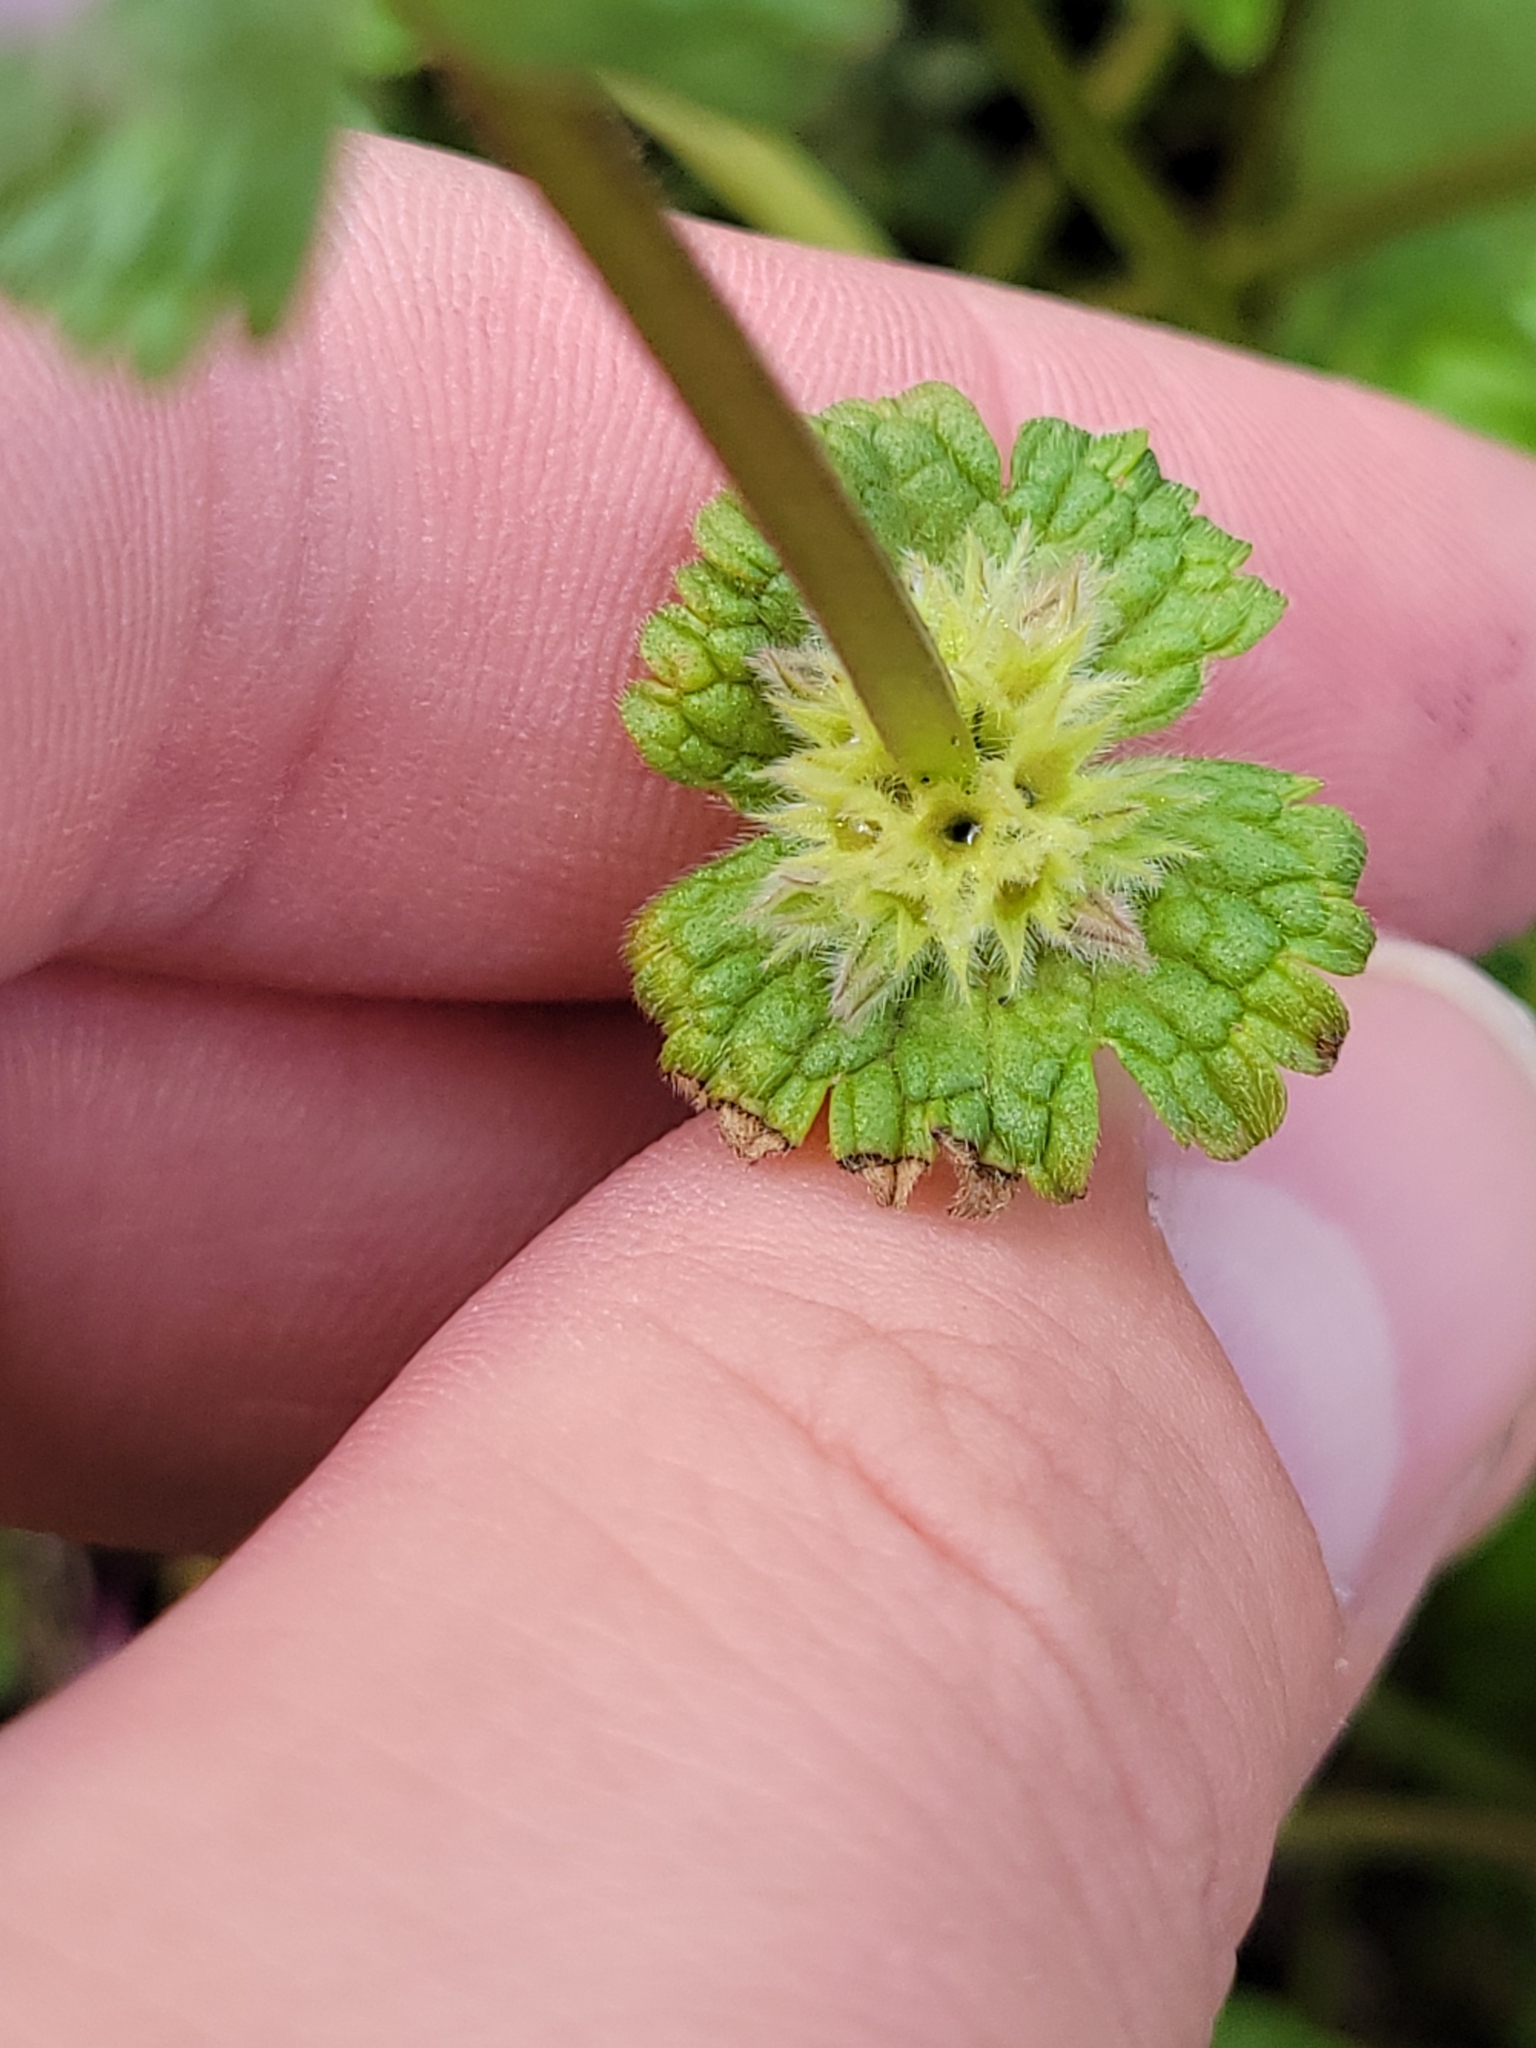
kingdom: Plantae
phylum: Tracheophyta
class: Magnoliopsida
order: Lamiales
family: Lamiaceae
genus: Lamium
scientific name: Lamium amplexicaule
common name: Henbit dead-nettle
